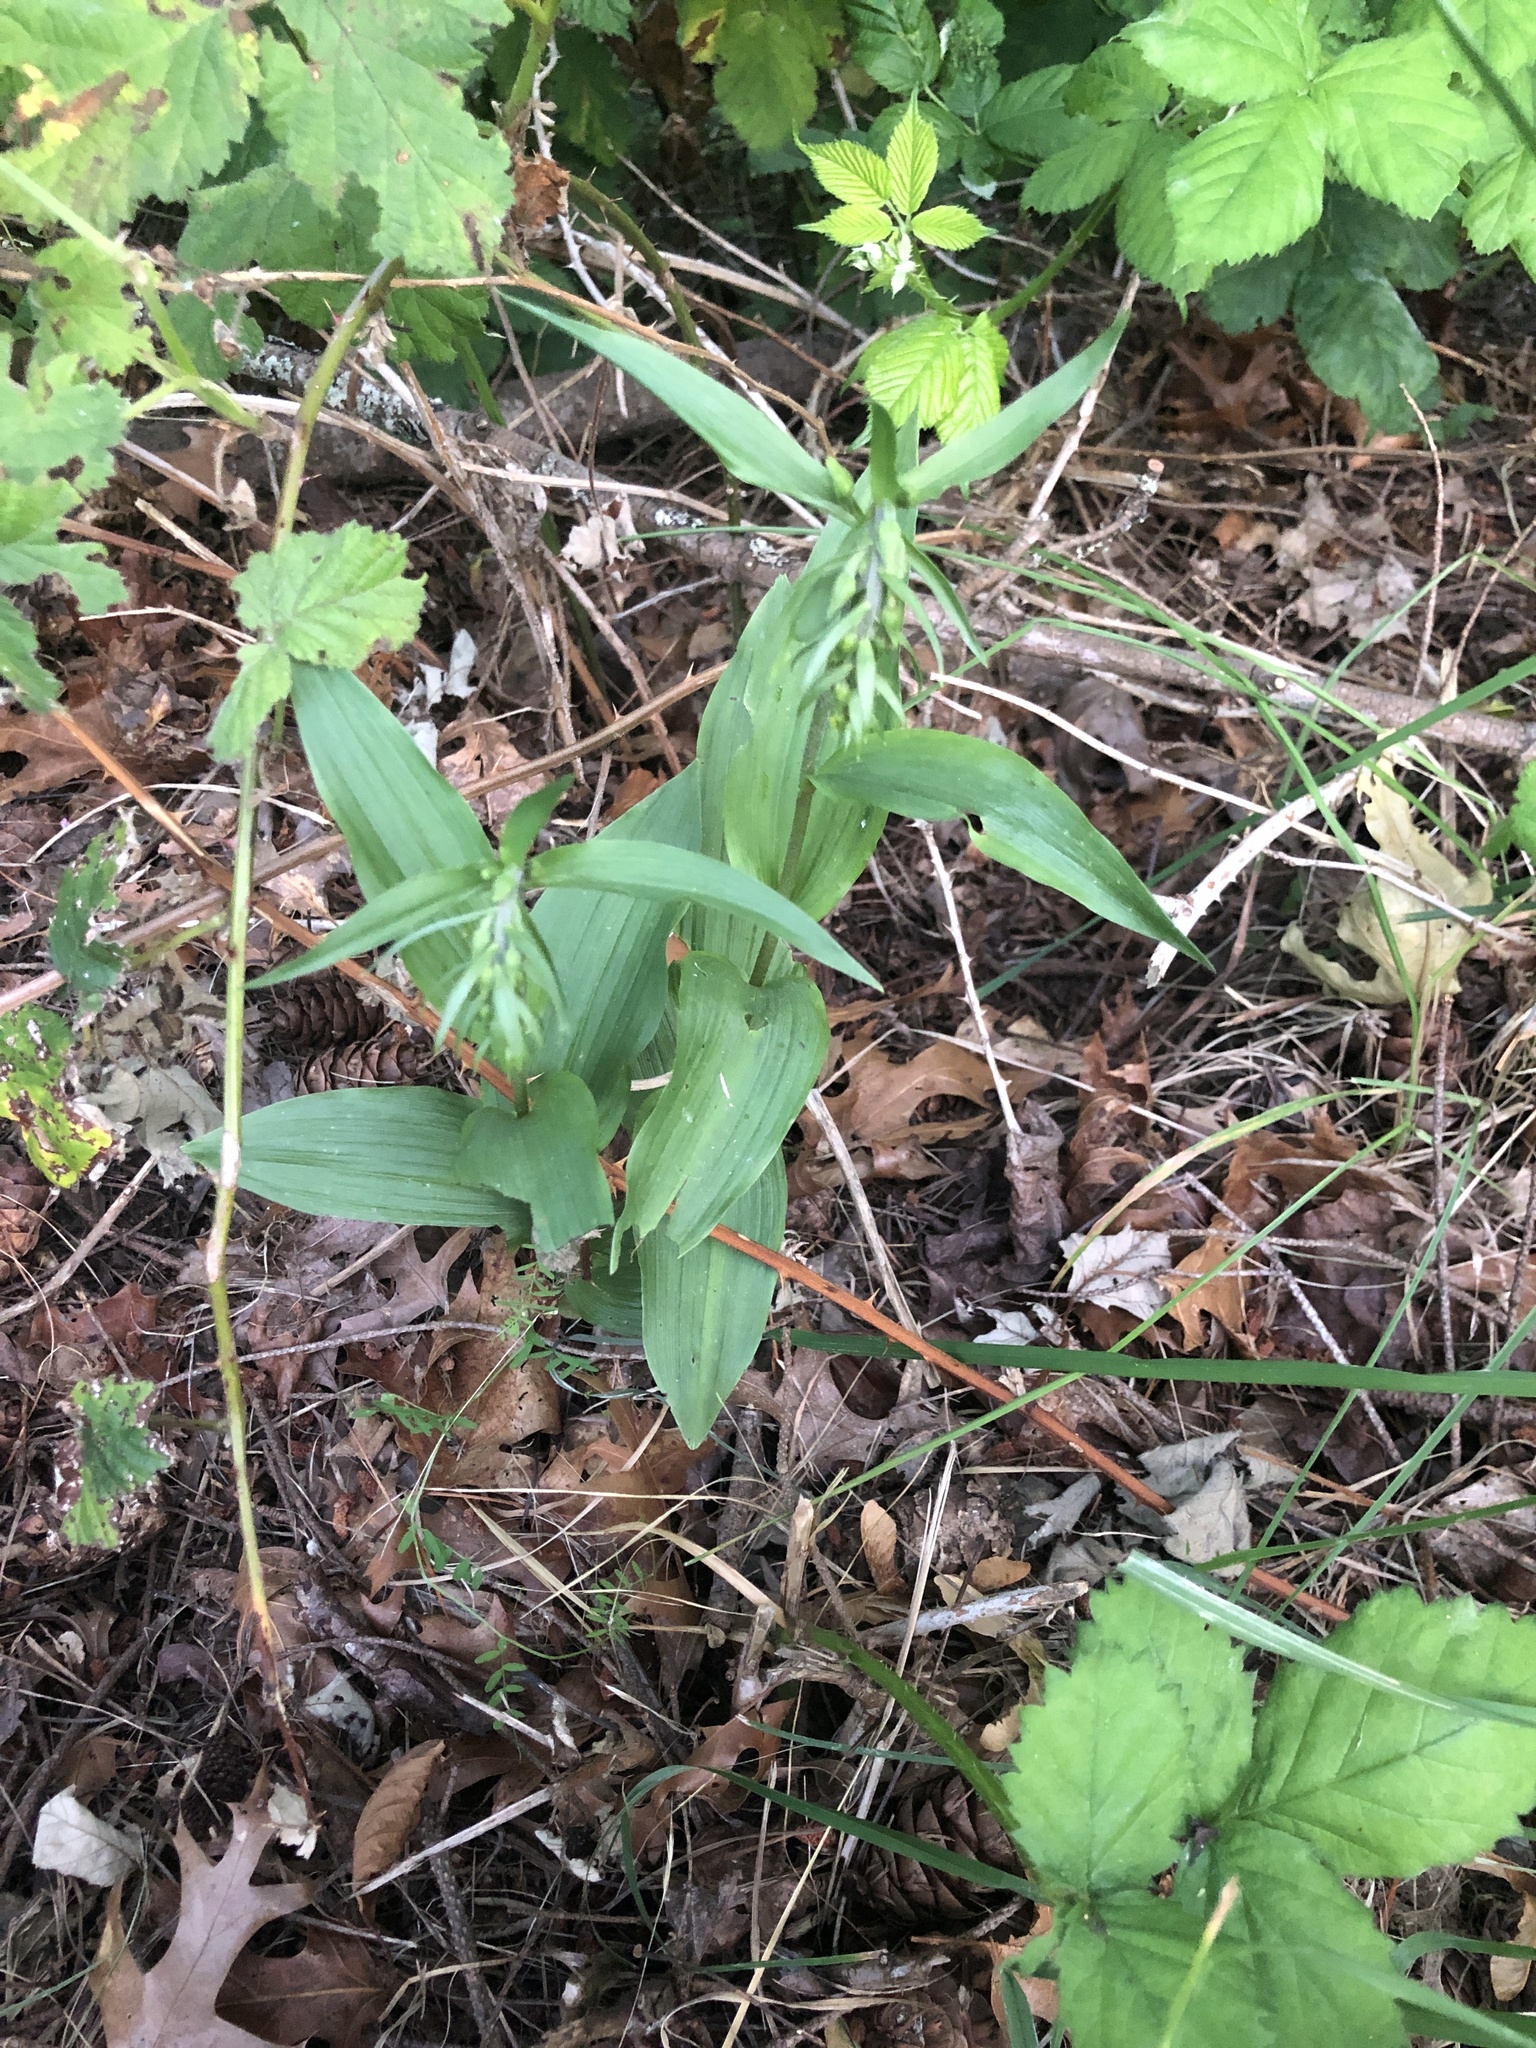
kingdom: Plantae
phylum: Tracheophyta
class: Liliopsida
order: Asparagales
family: Orchidaceae
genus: Epipactis
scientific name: Epipactis helleborine
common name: Broad-leaved helleborine
